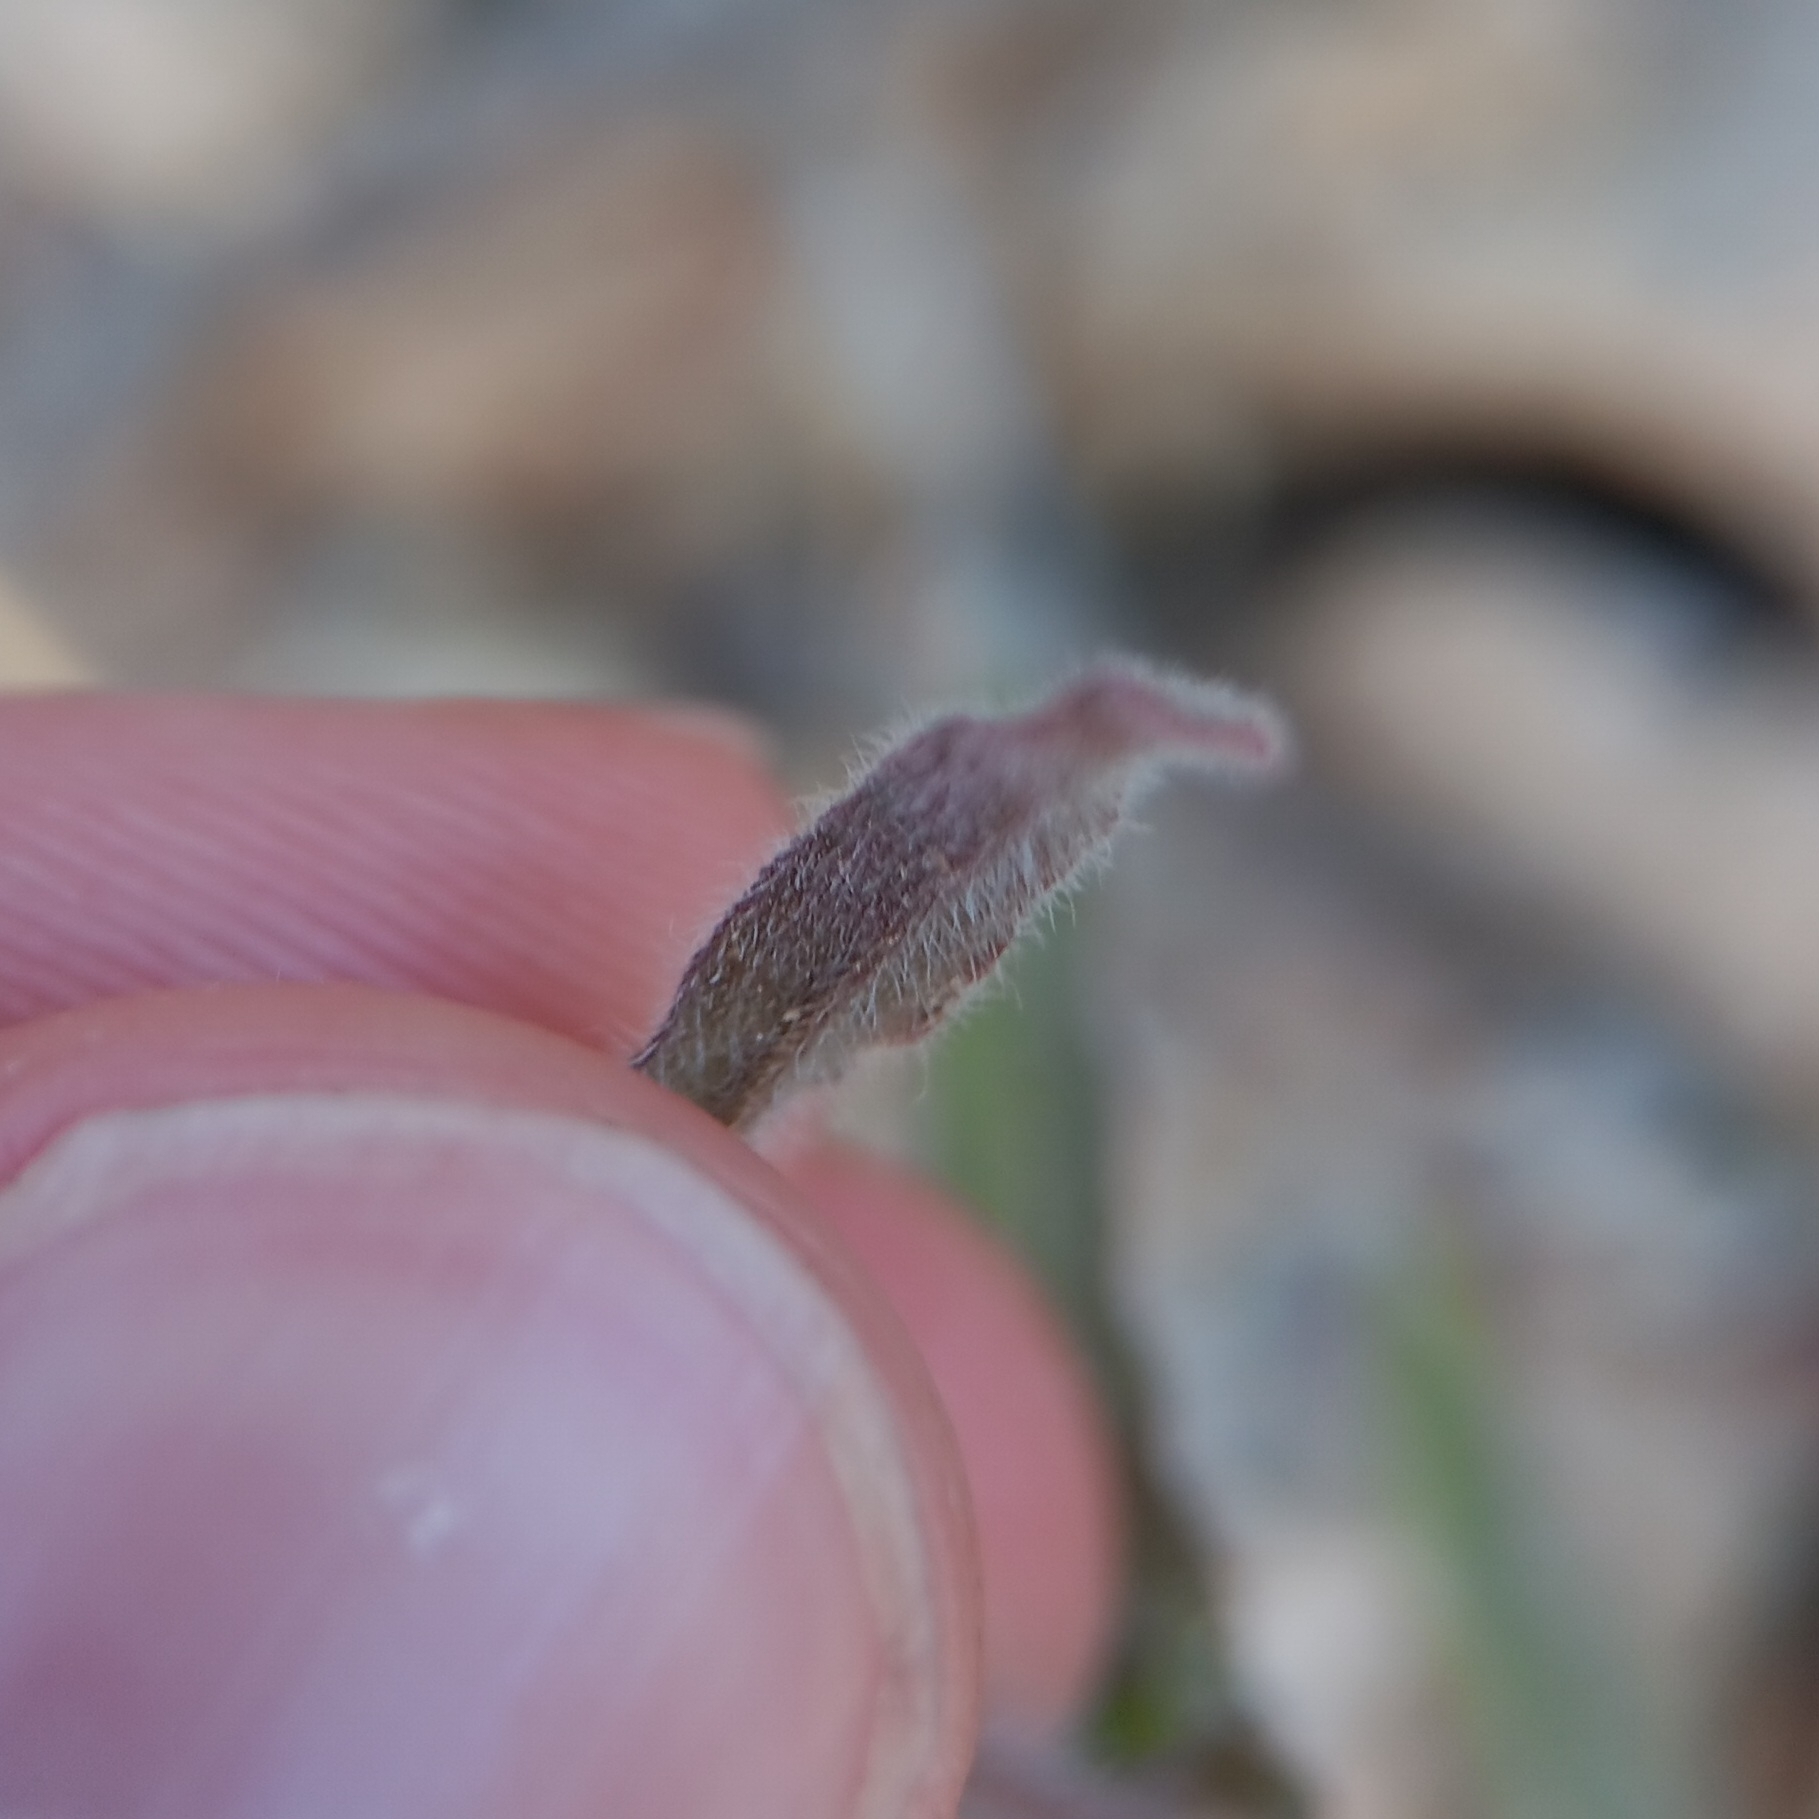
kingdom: Plantae
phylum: Tracheophyta
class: Magnoliopsida
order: Lamiales
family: Orobanchaceae
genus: Castilleja
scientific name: Castilleja tenuiflora
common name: Santa catalina indian paintbrush
